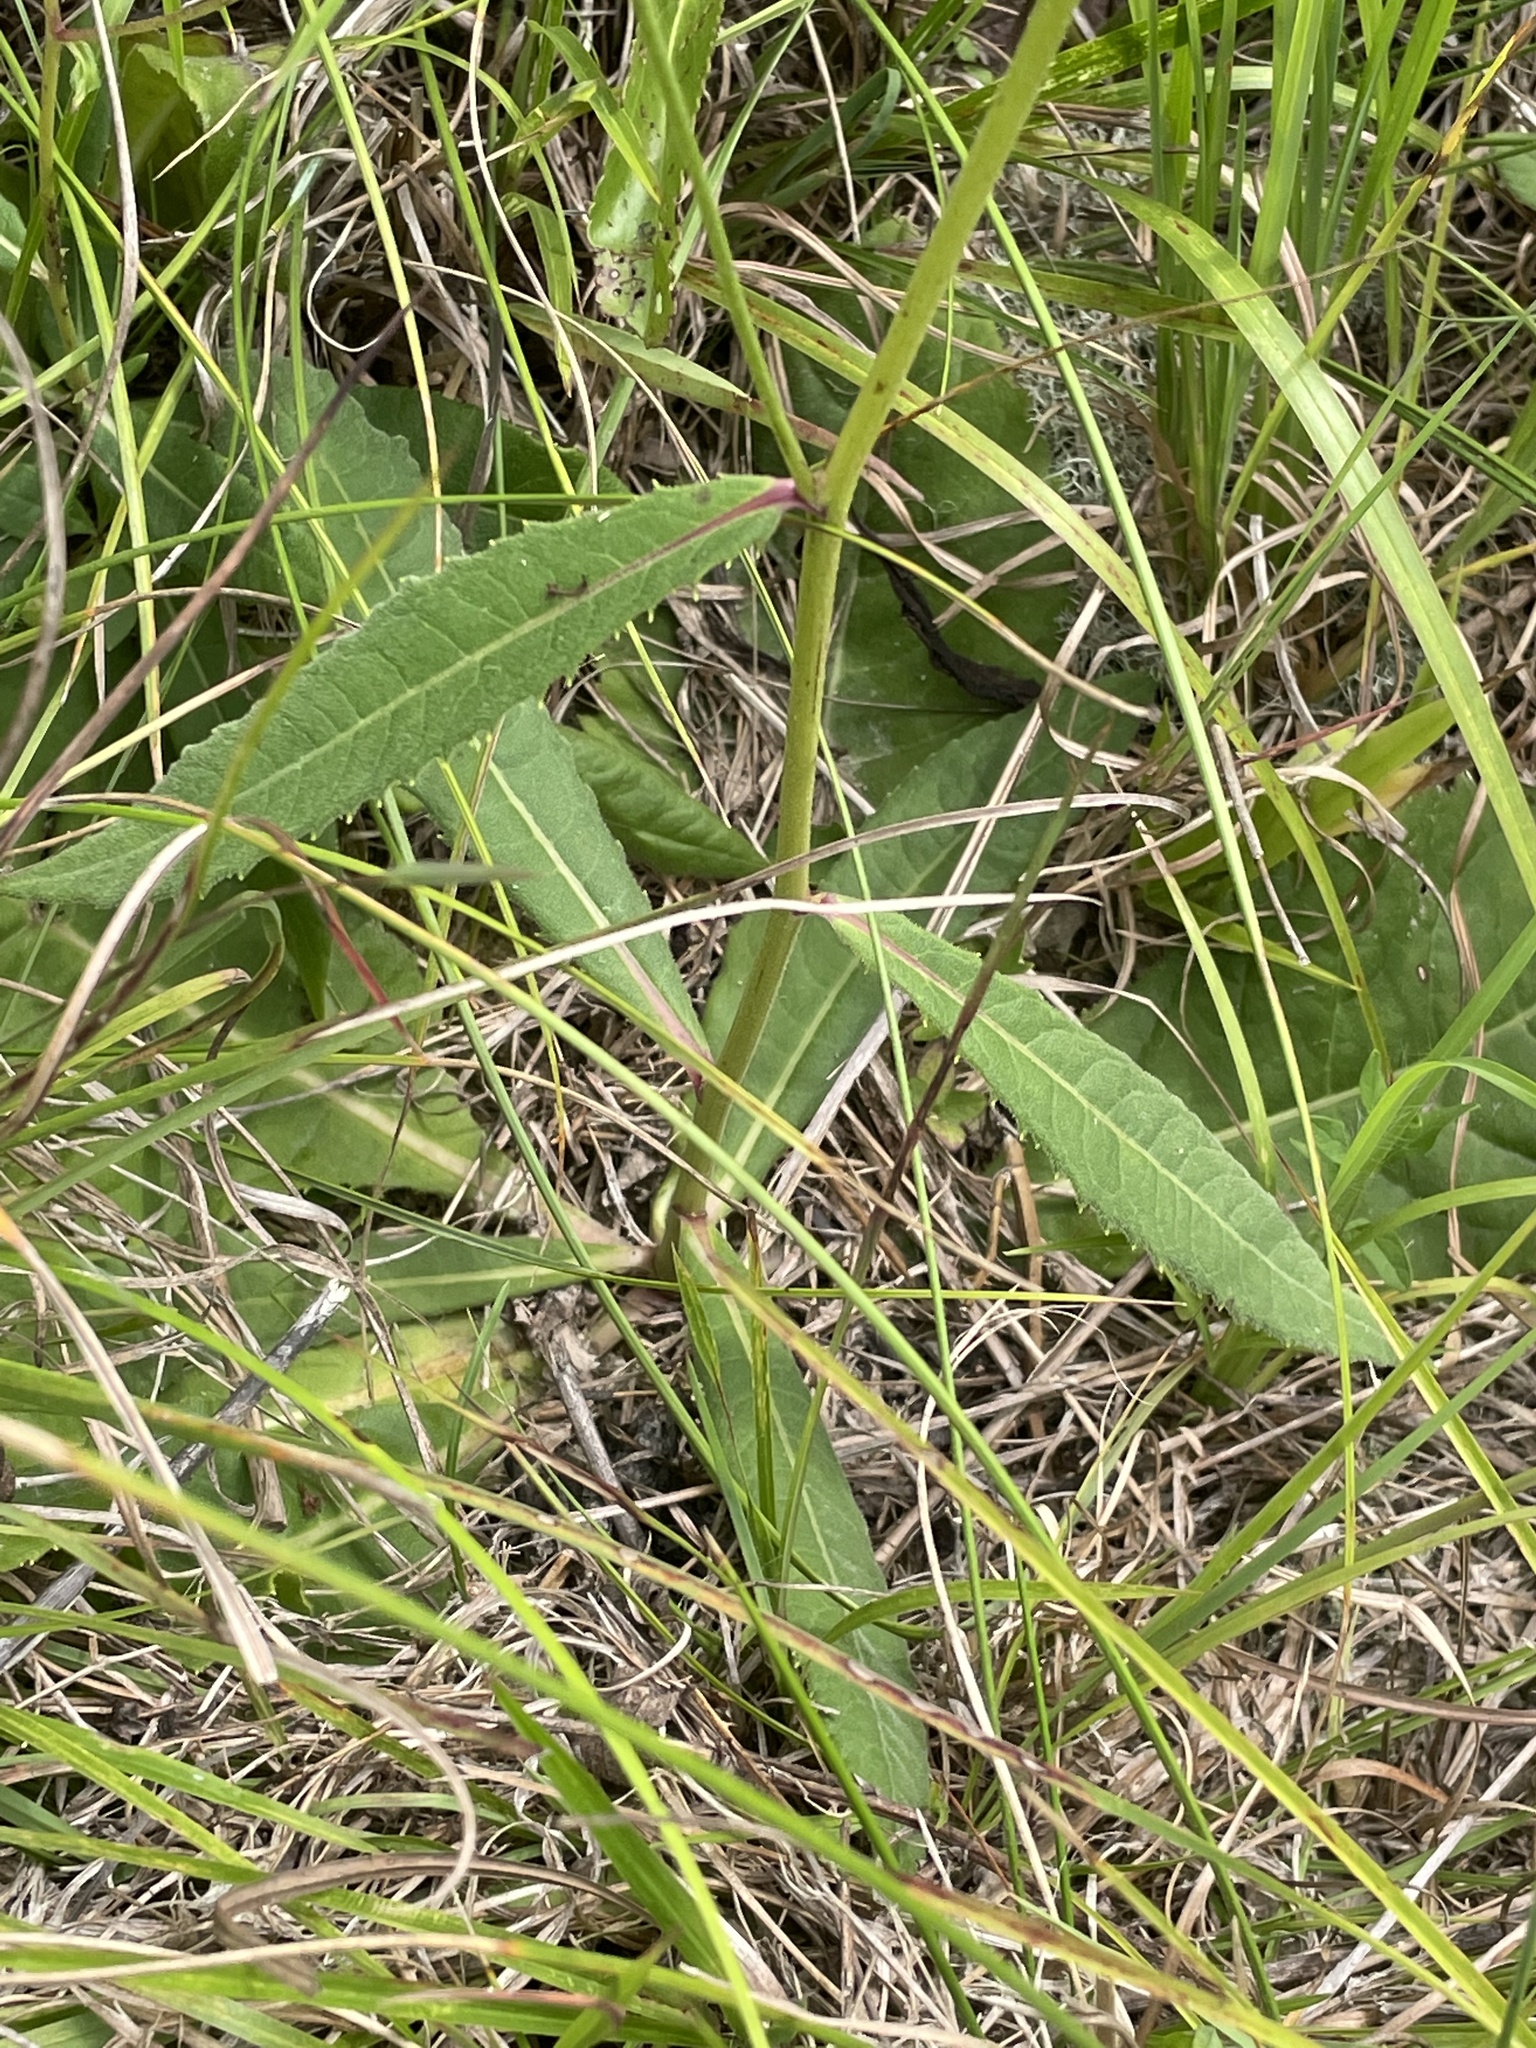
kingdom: Plantae
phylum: Tracheophyta
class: Magnoliopsida
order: Asterales
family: Asteraceae
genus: Vernonia
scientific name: Vernonia acaulis
